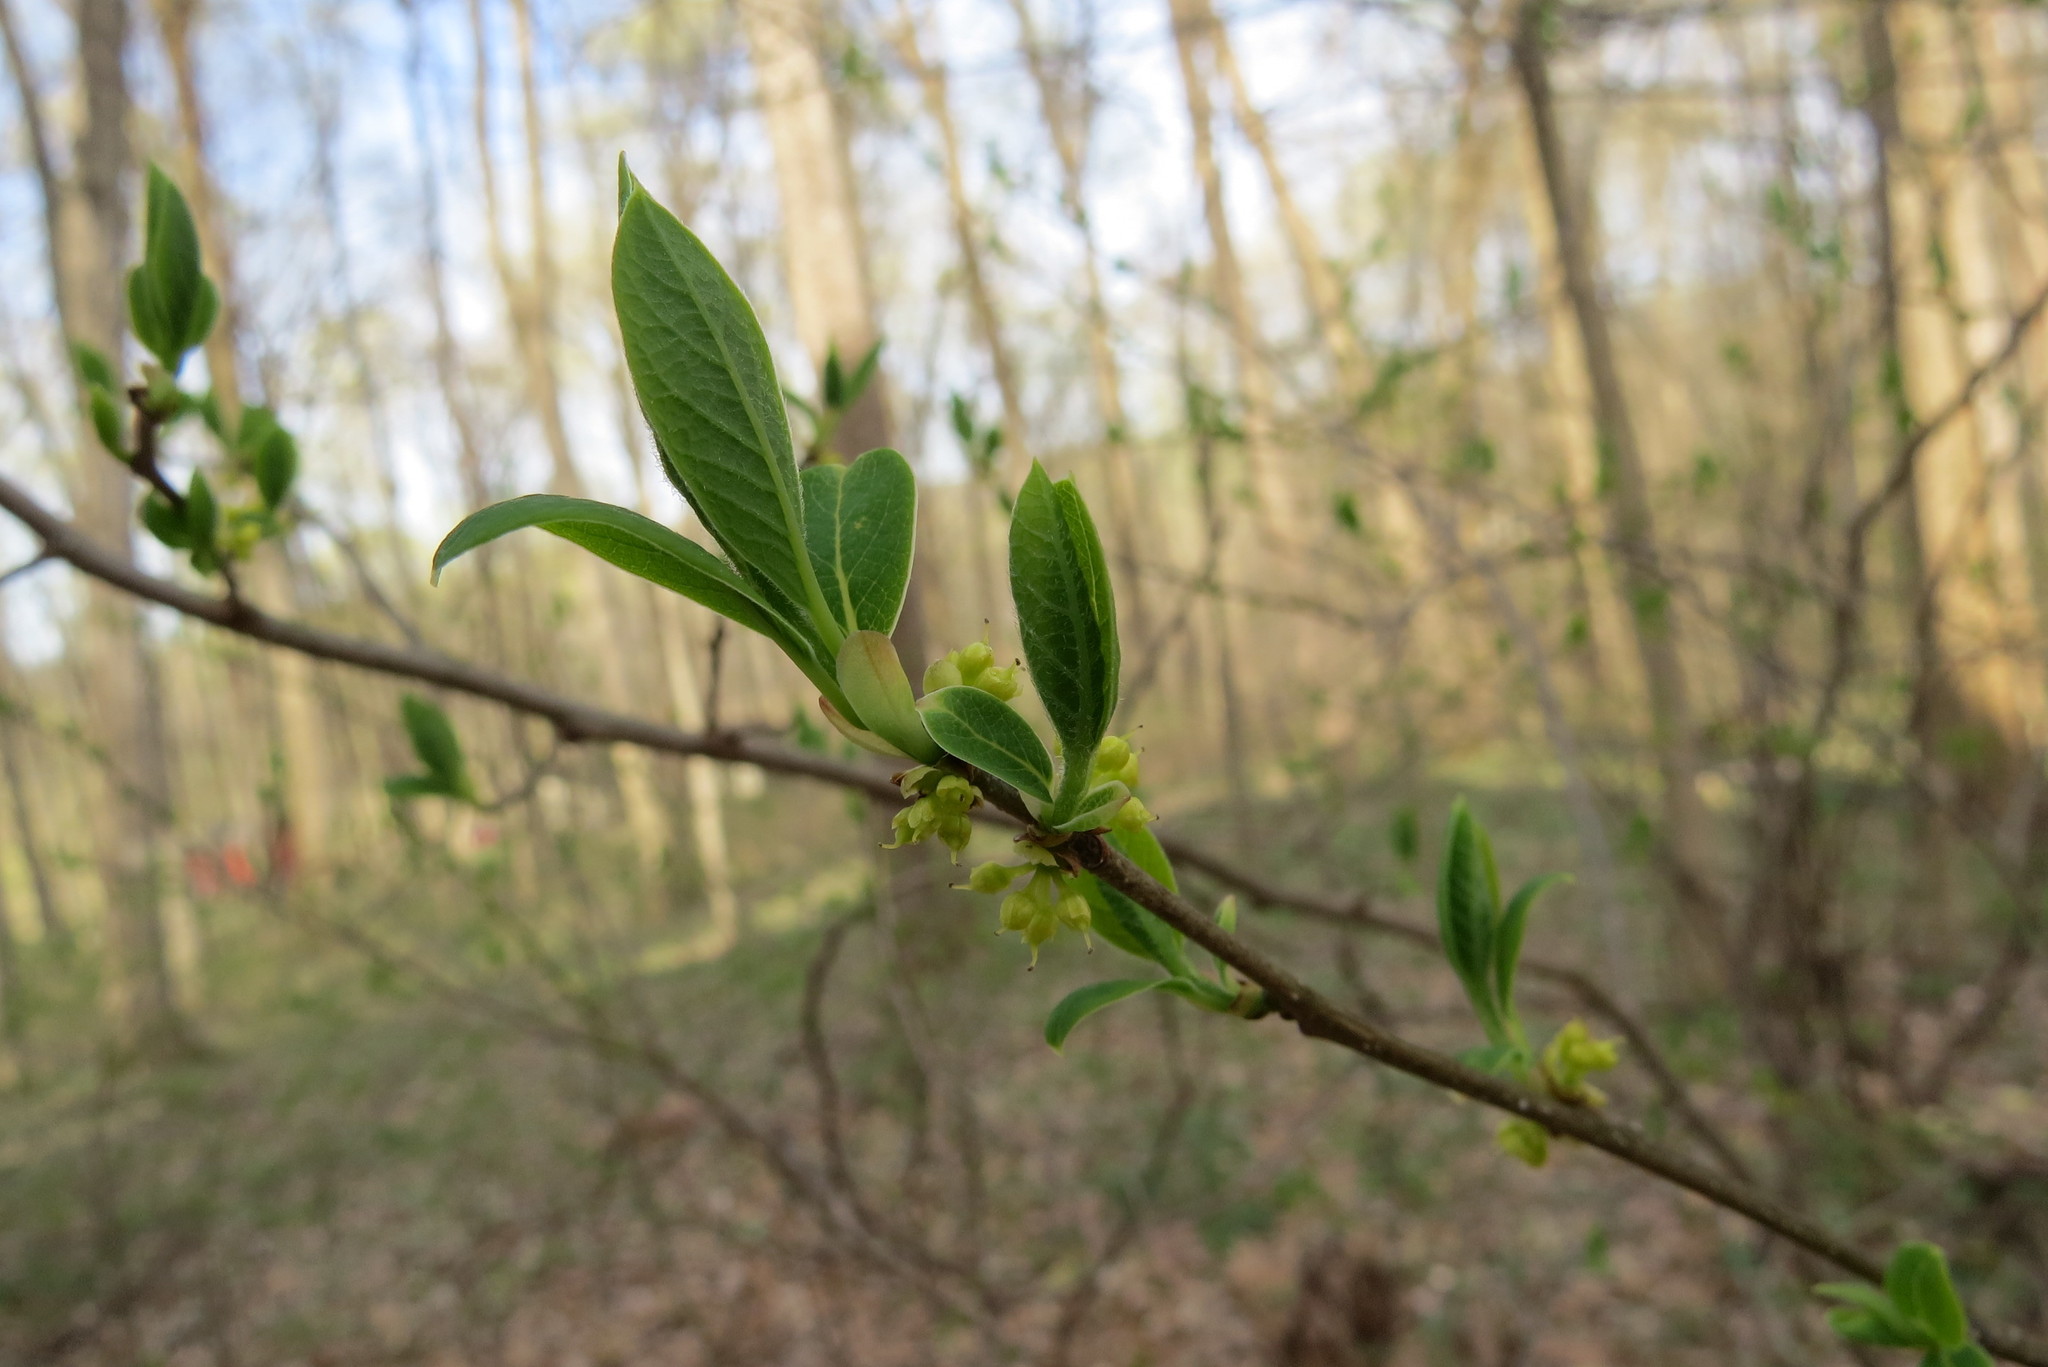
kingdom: Plantae
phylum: Tracheophyta
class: Magnoliopsida
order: Laurales
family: Lauraceae
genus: Lindera
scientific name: Lindera benzoin
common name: Spicebush
